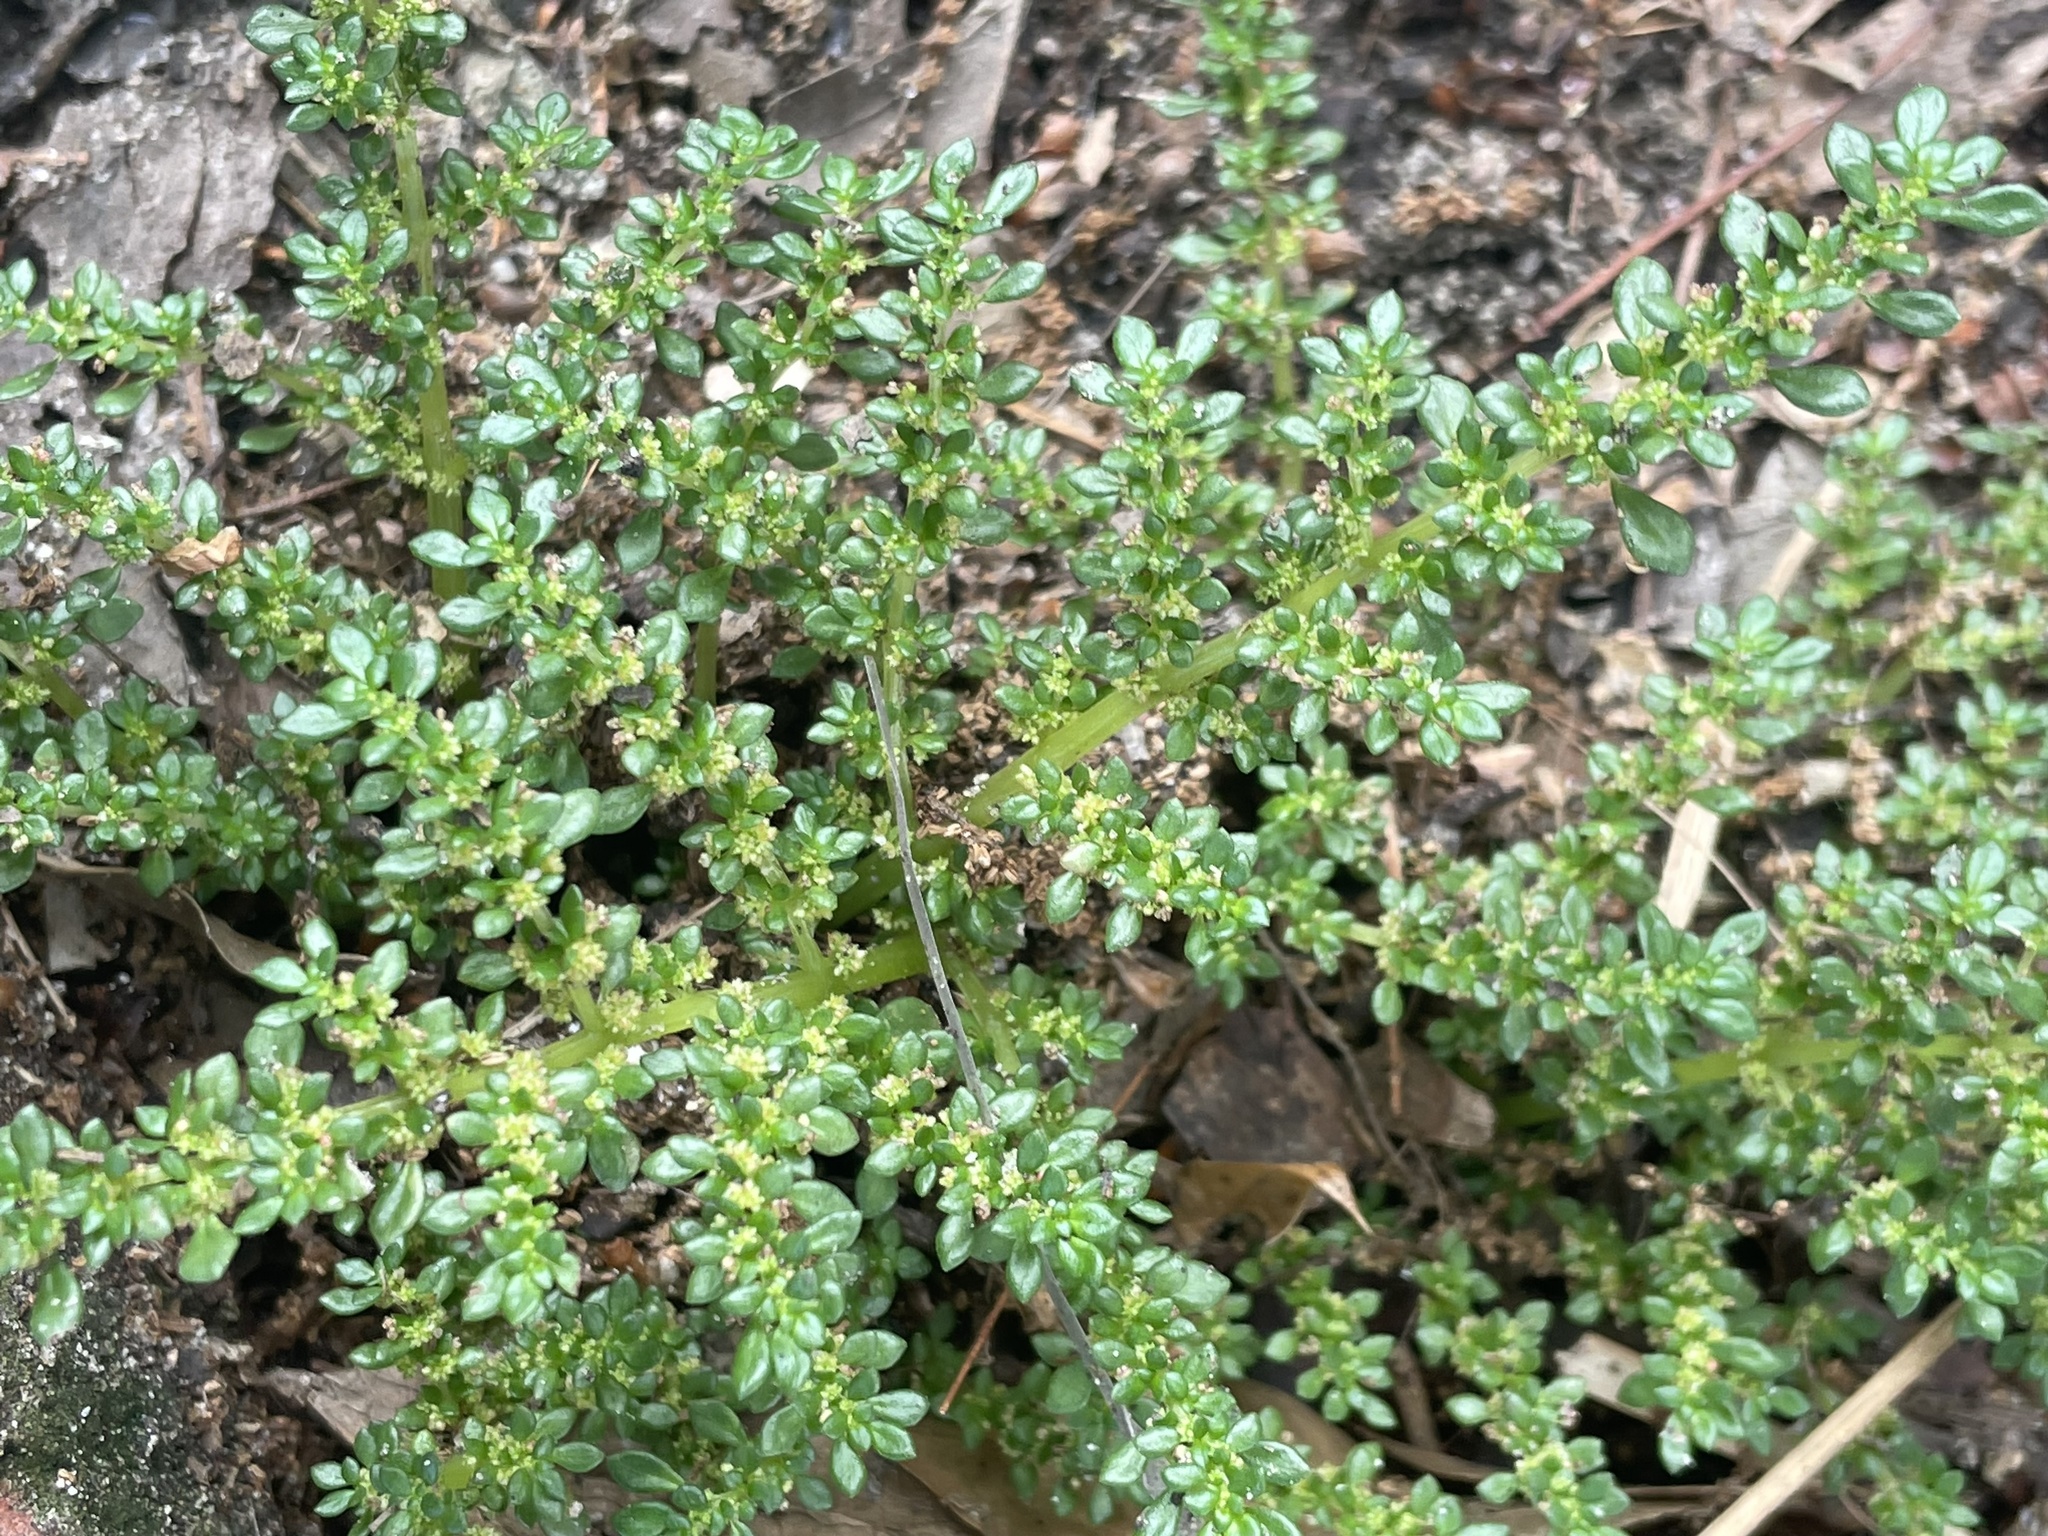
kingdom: Plantae
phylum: Tracheophyta
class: Magnoliopsida
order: Rosales
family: Urticaceae
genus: Pilea
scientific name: Pilea microphylla
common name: Artillery-plant
